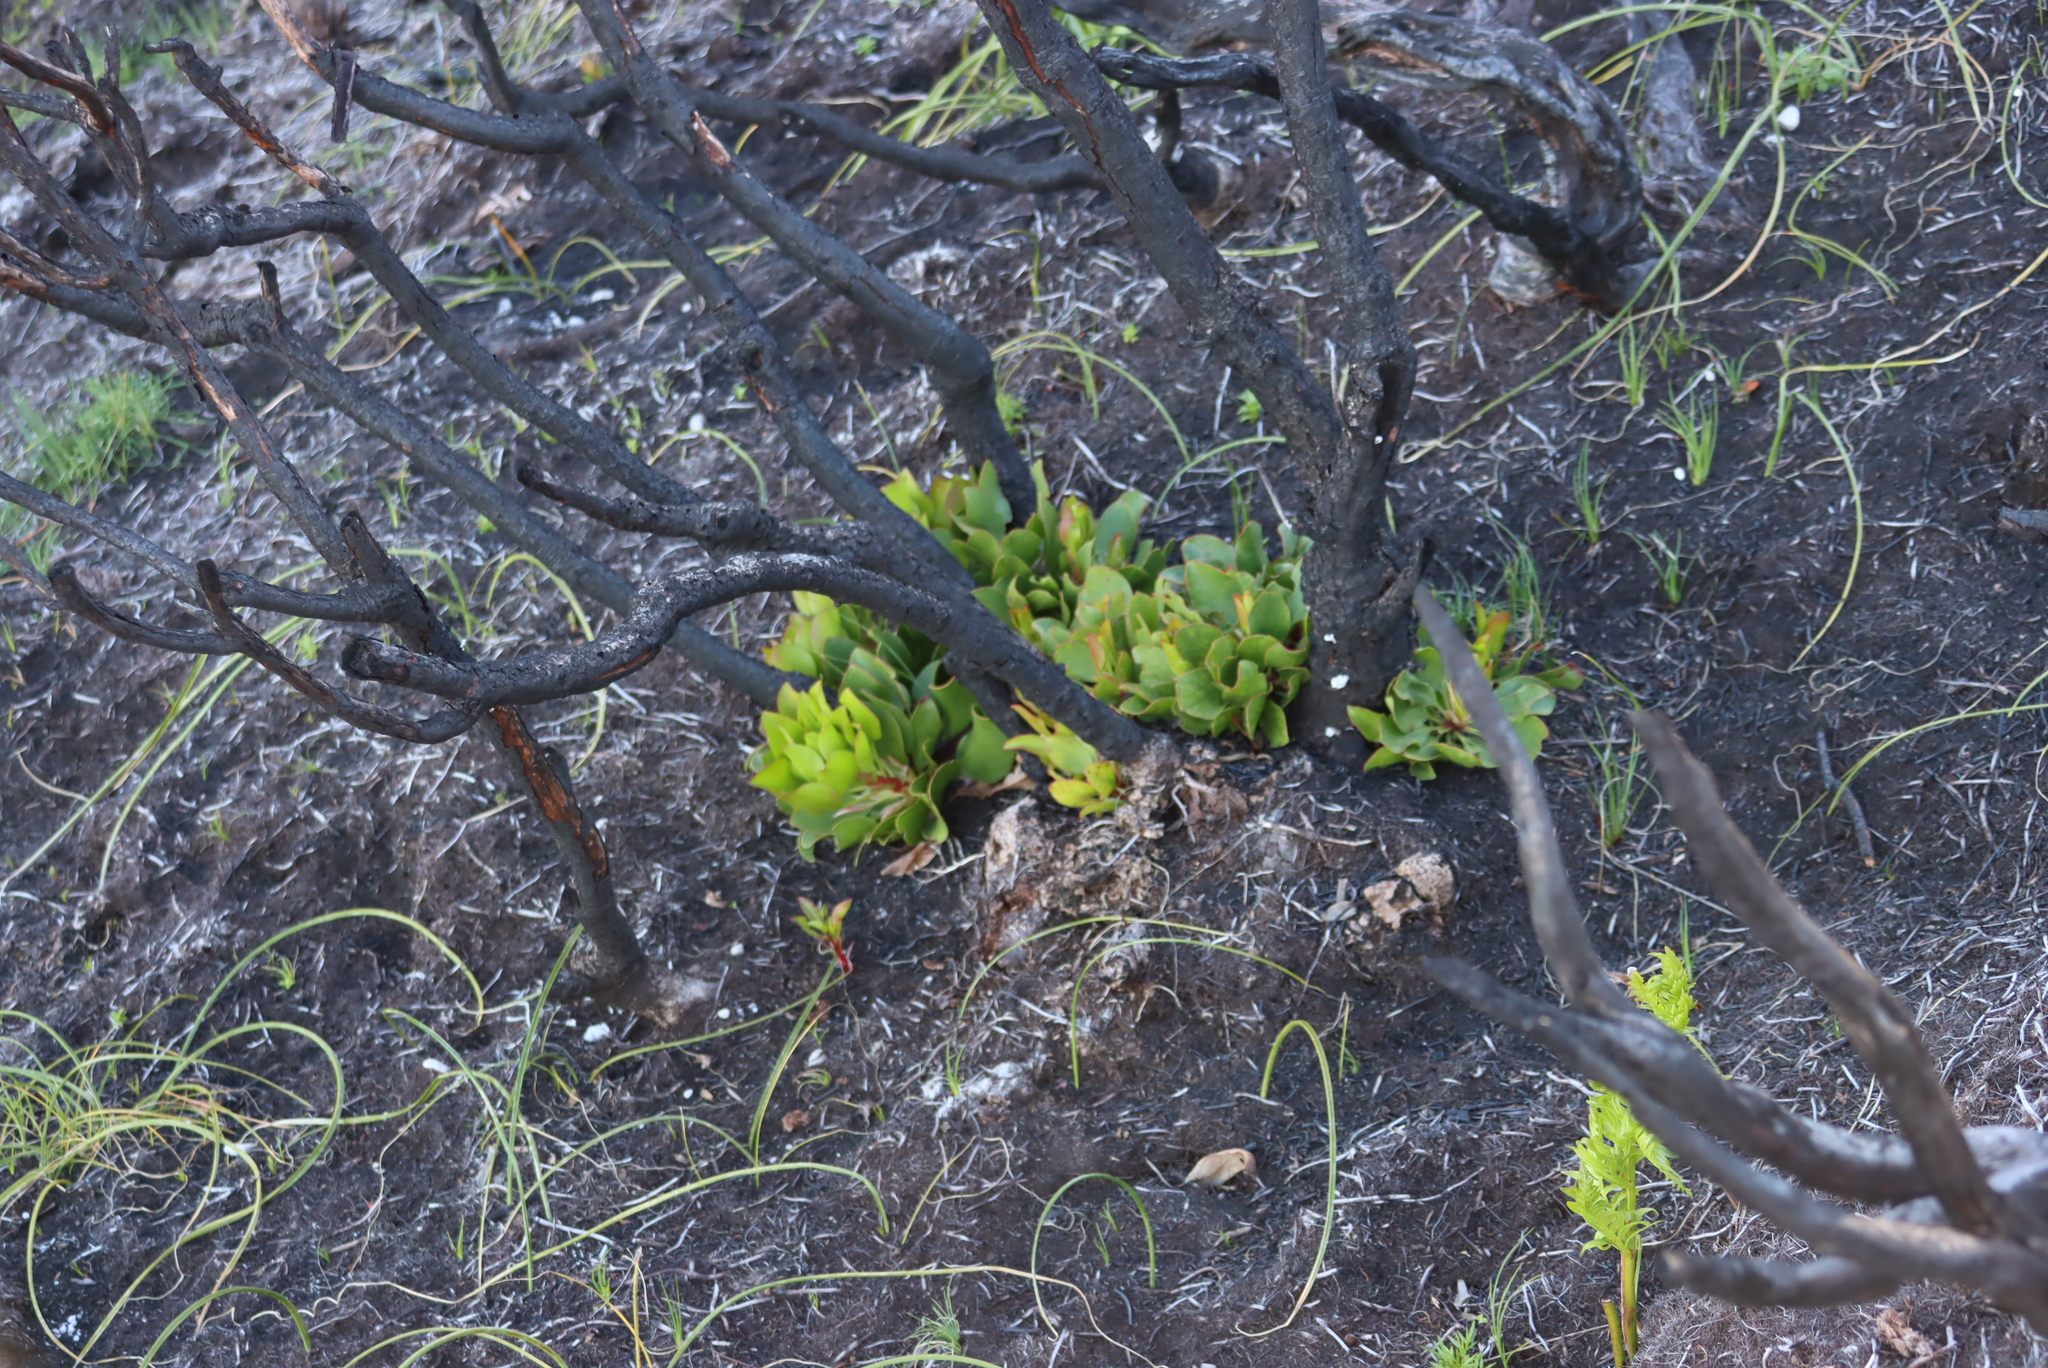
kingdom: Plantae
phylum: Tracheophyta
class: Magnoliopsida
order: Proteales
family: Proteaceae
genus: Protea
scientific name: Protea cynaroides
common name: King protea
